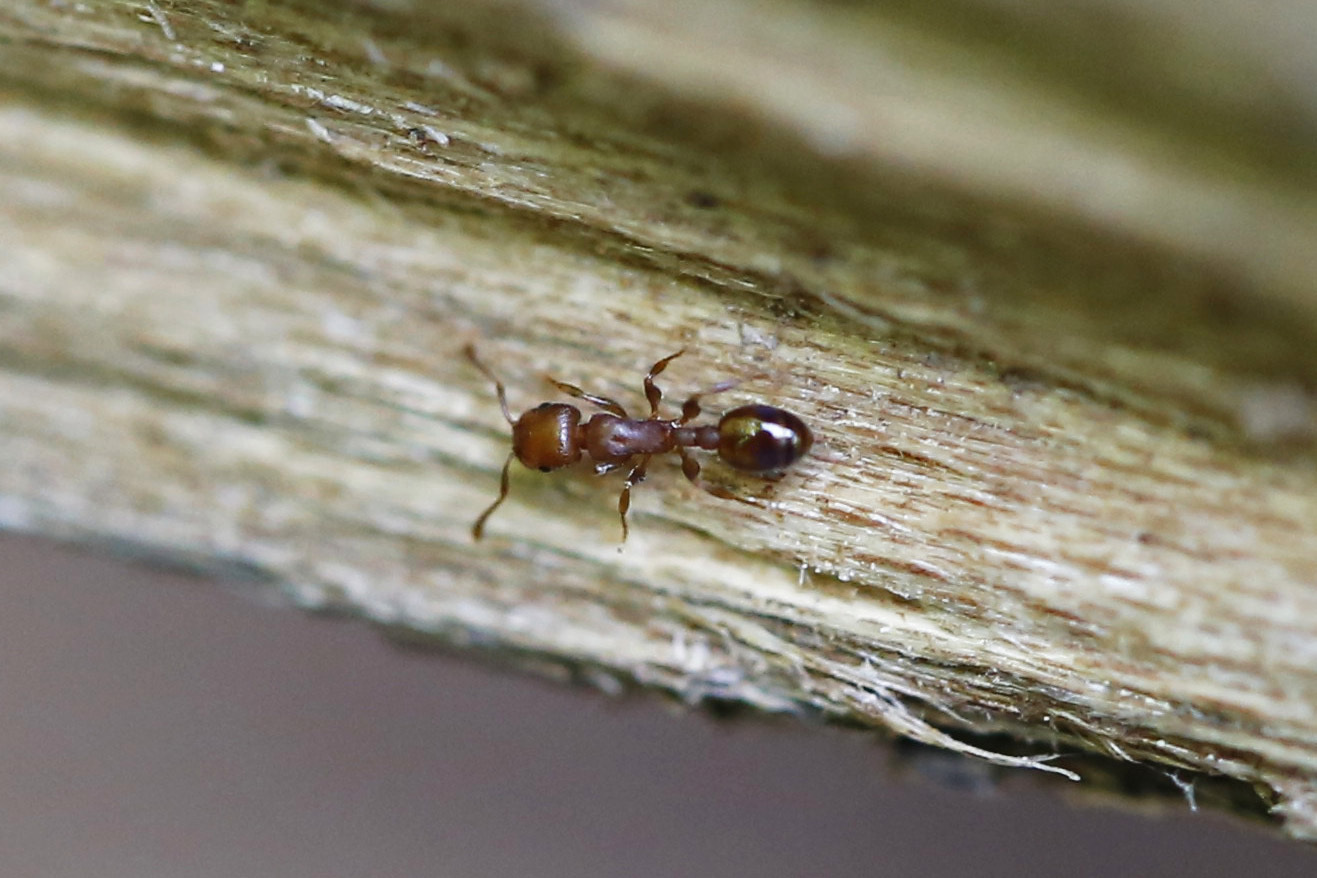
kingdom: Animalia
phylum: Arthropoda
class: Insecta
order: Hymenoptera
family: Formicidae
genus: Leptothorax
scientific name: Leptothorax schaumii
